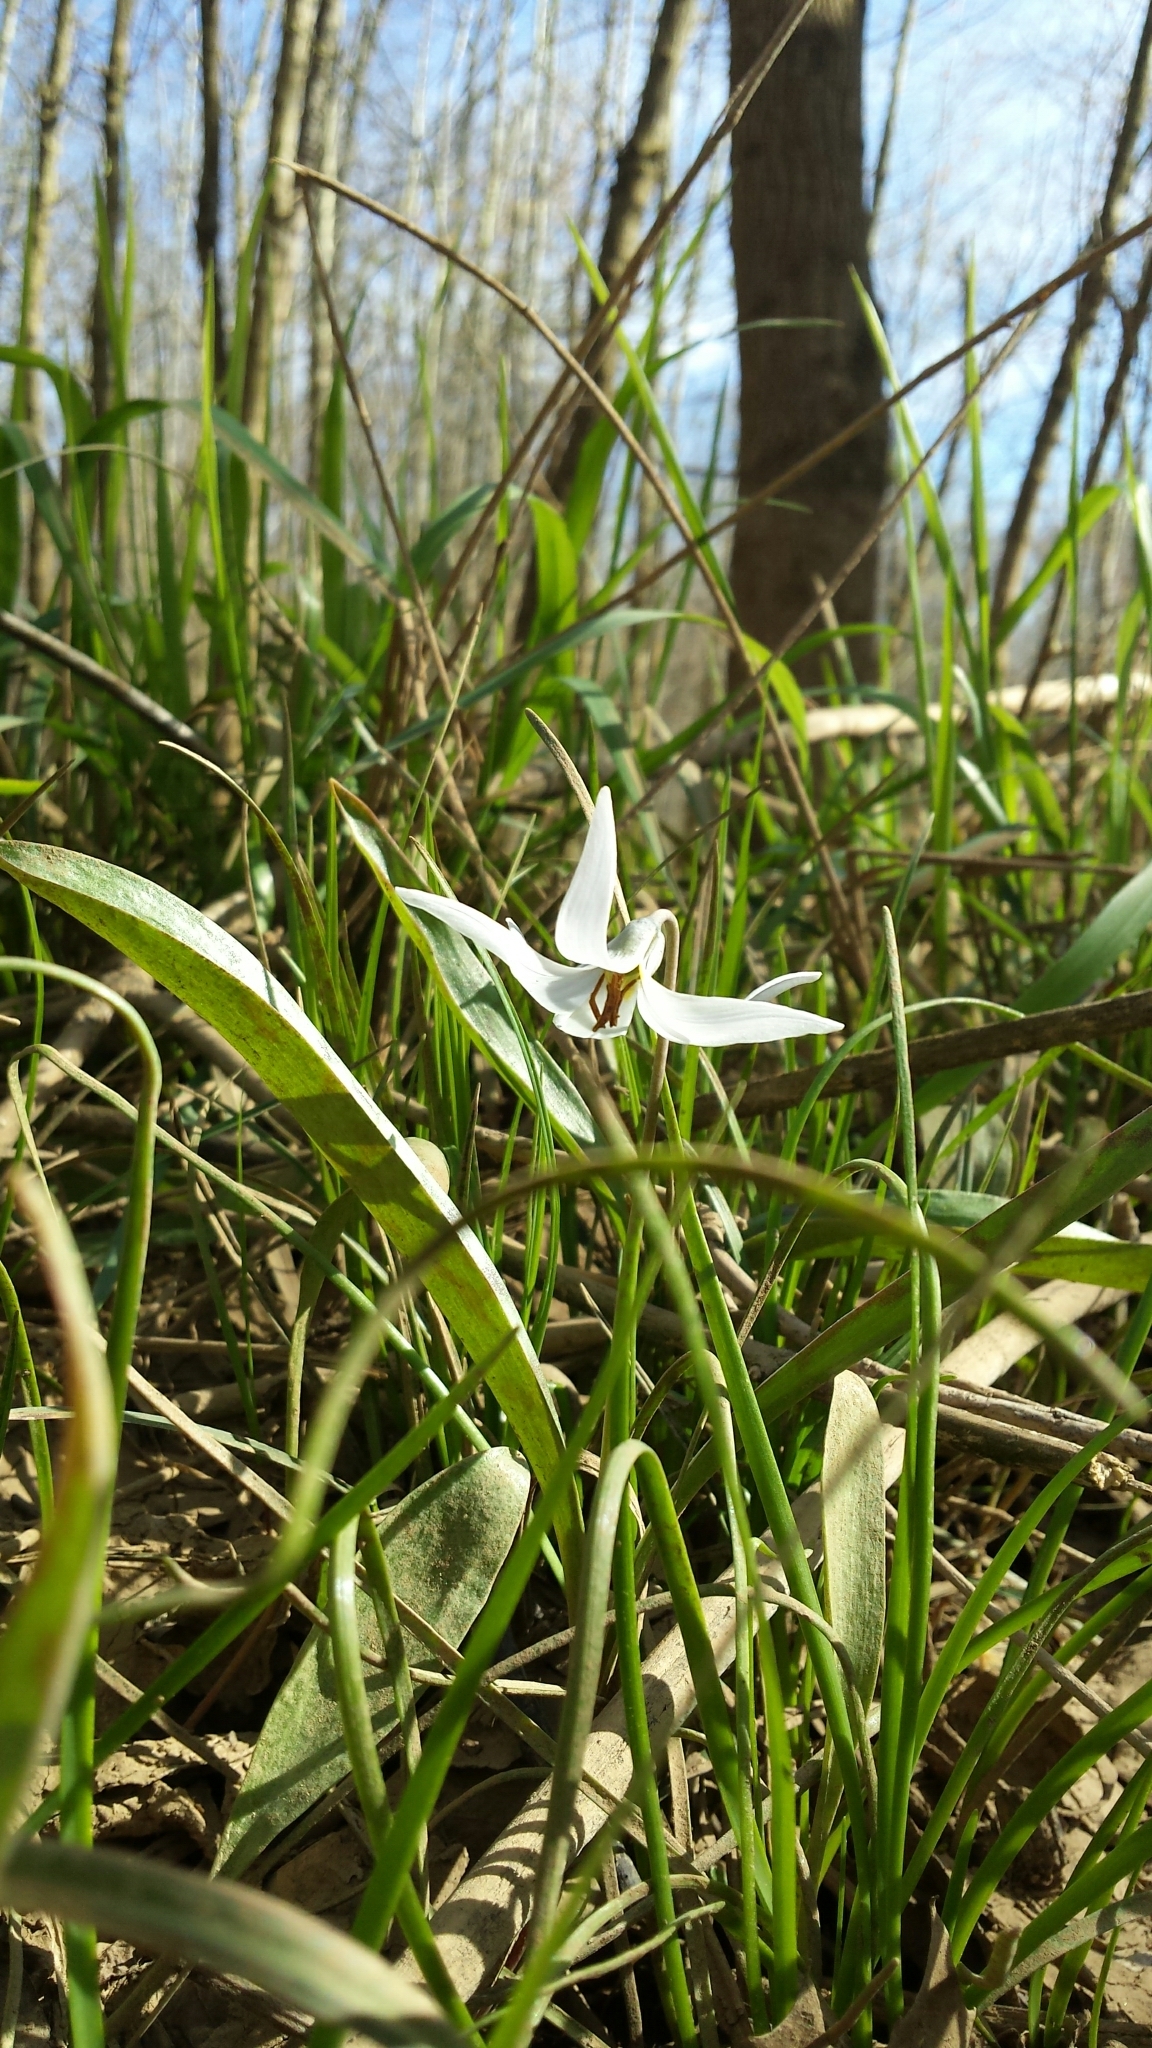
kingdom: Plantae
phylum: Tracheophyta
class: Liliopsida
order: Liliales
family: Liliaceae
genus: Erythronium
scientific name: Erythronium albidum
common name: White trout-lily
